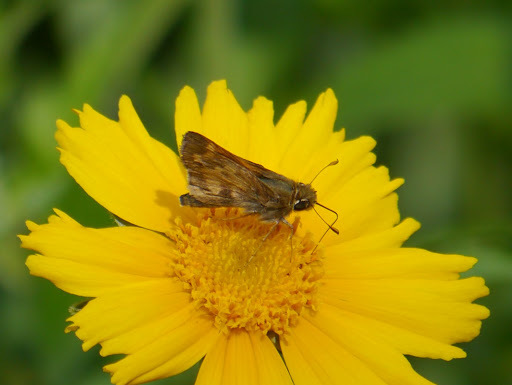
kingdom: Animalia
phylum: Arthropoda
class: Insecta
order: Lepidoptera
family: Hesperiidae
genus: Atalopedes
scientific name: Atalopedes
